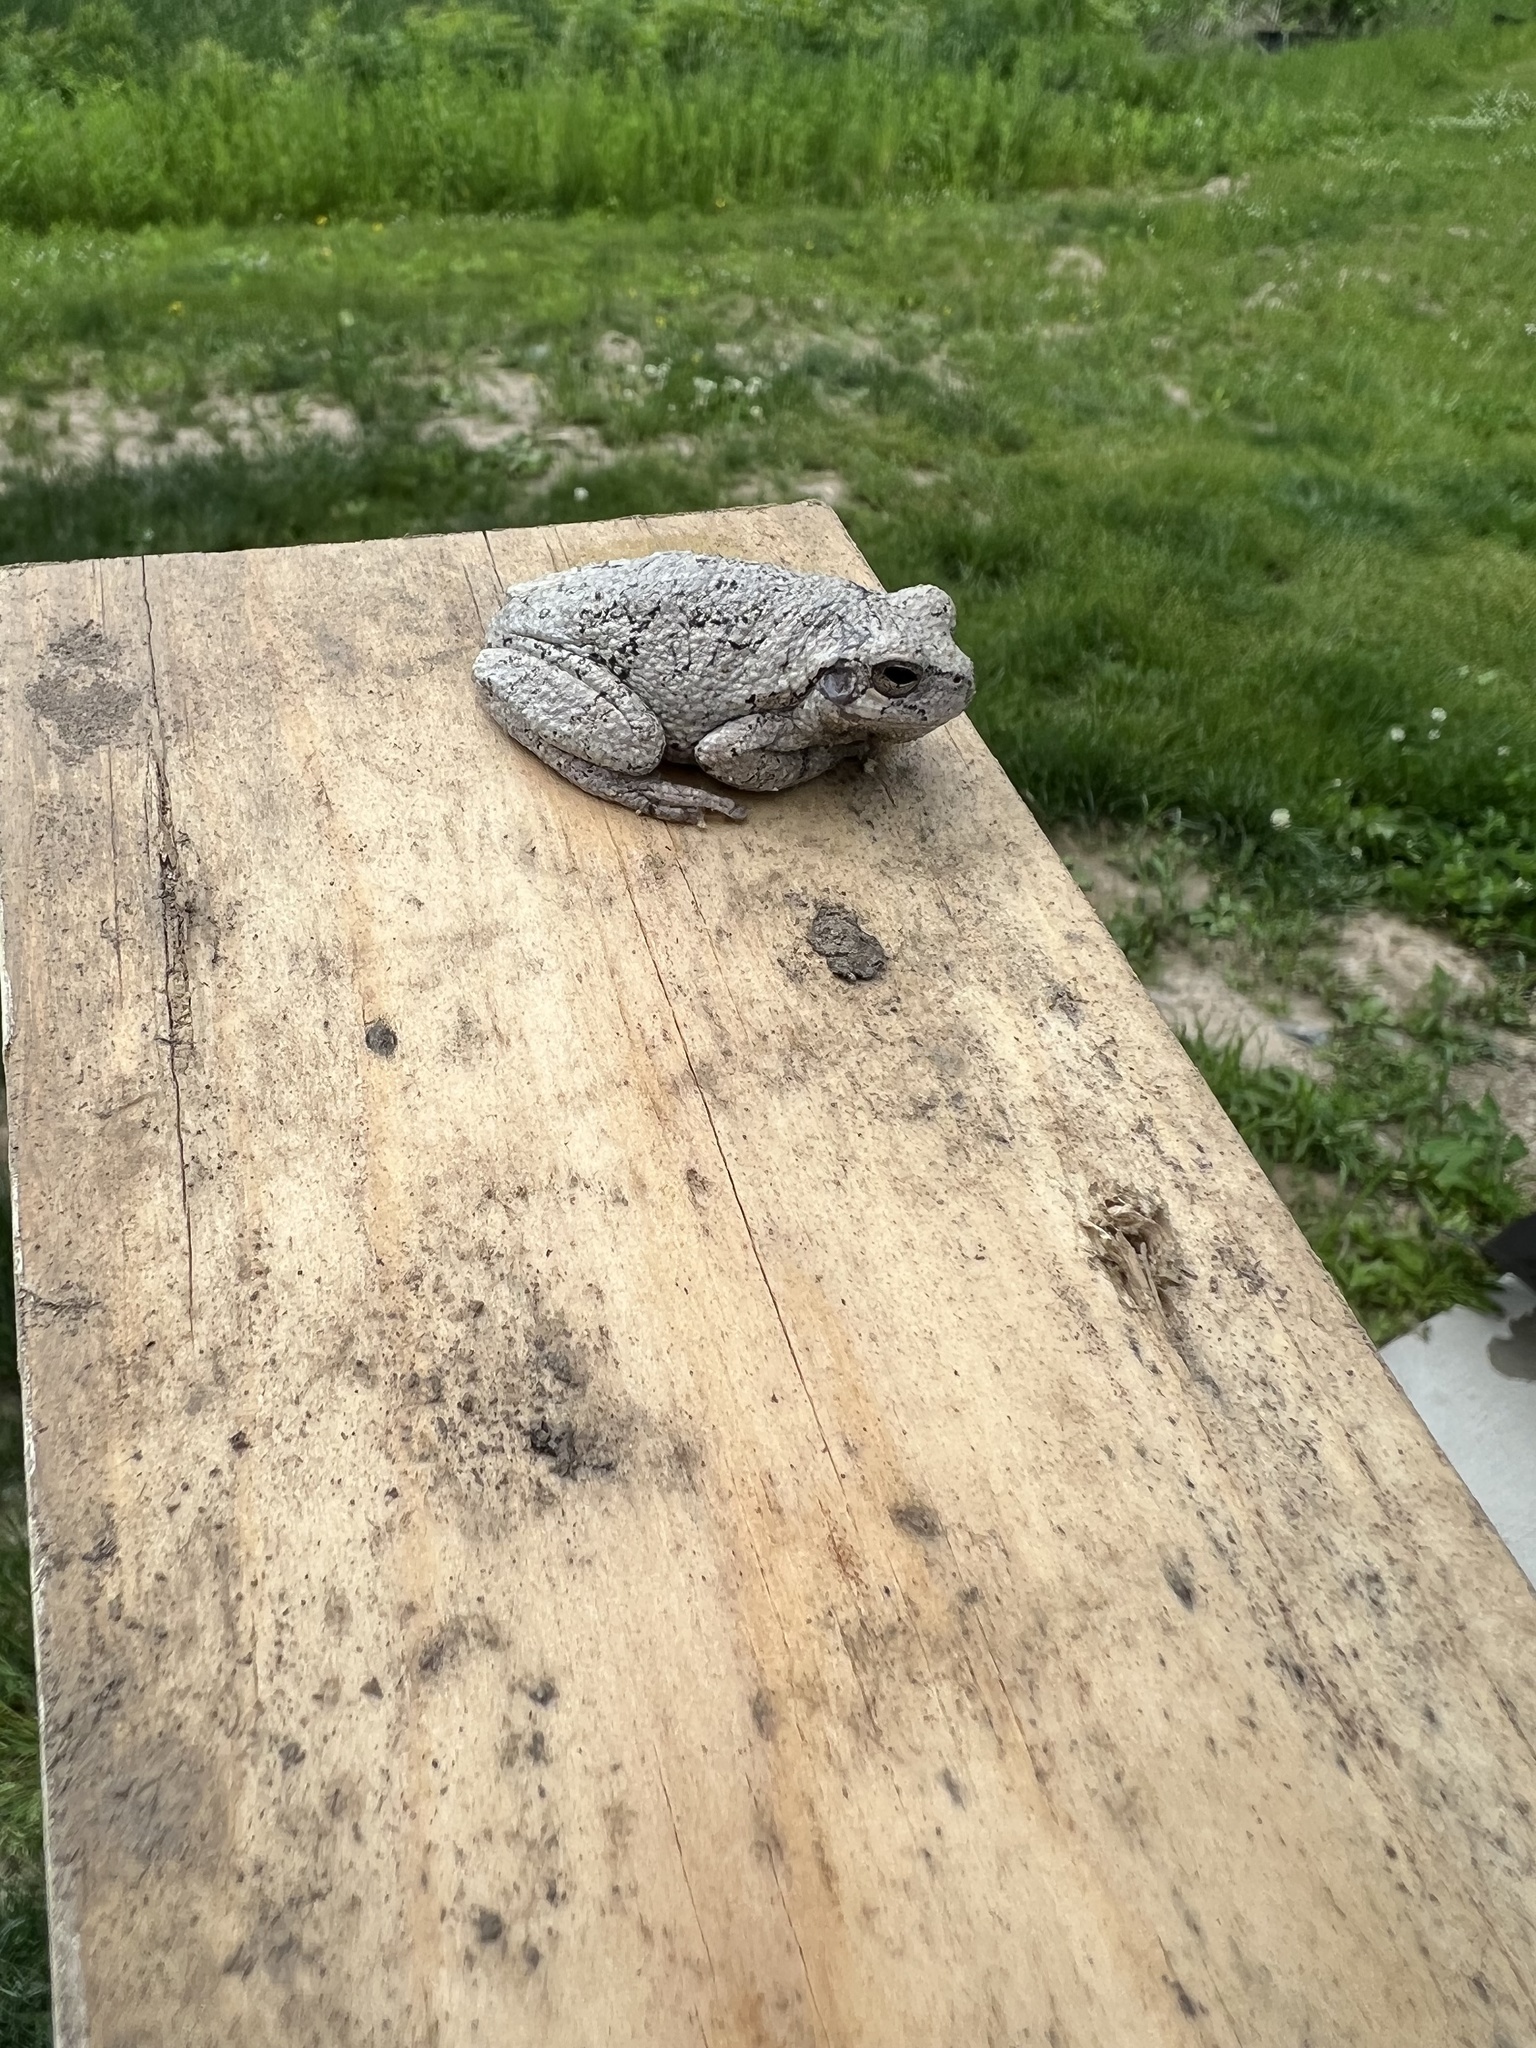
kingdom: Animalia
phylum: Chordata
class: Amphibia
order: Anura
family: Hylidae
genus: Hyla
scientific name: Hyla
